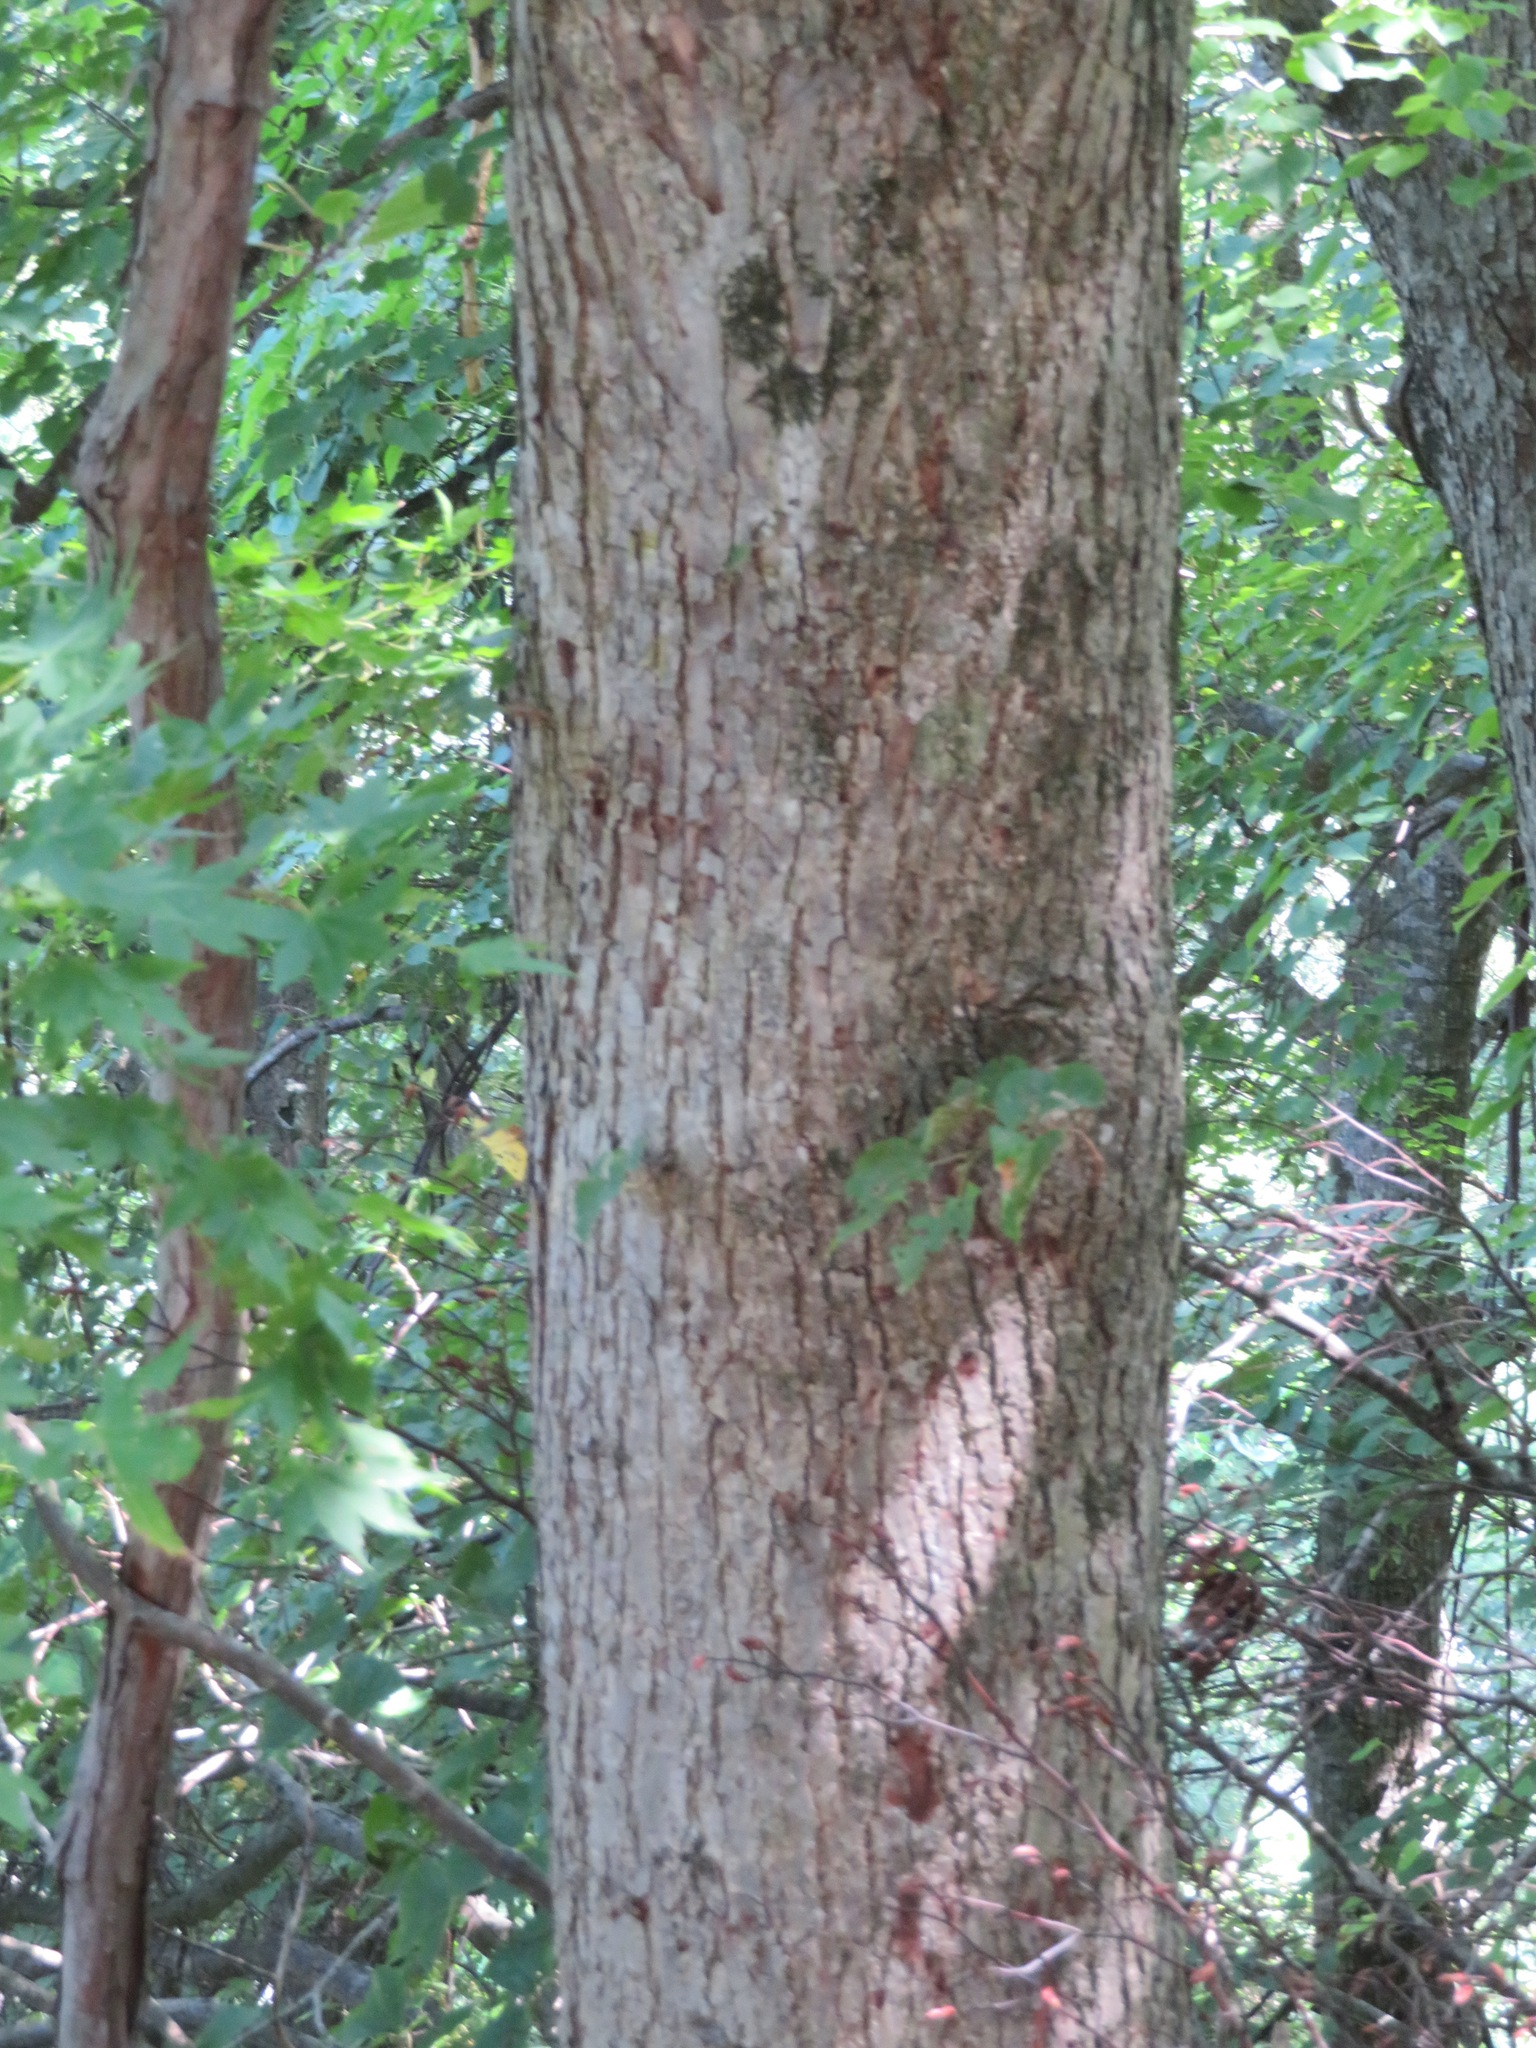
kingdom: Plantae
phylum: Tracheophyta
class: Magnoliopsida
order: Malvales
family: Malvaceae
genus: Tilia
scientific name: Tilia japonica
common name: Japanese lime
